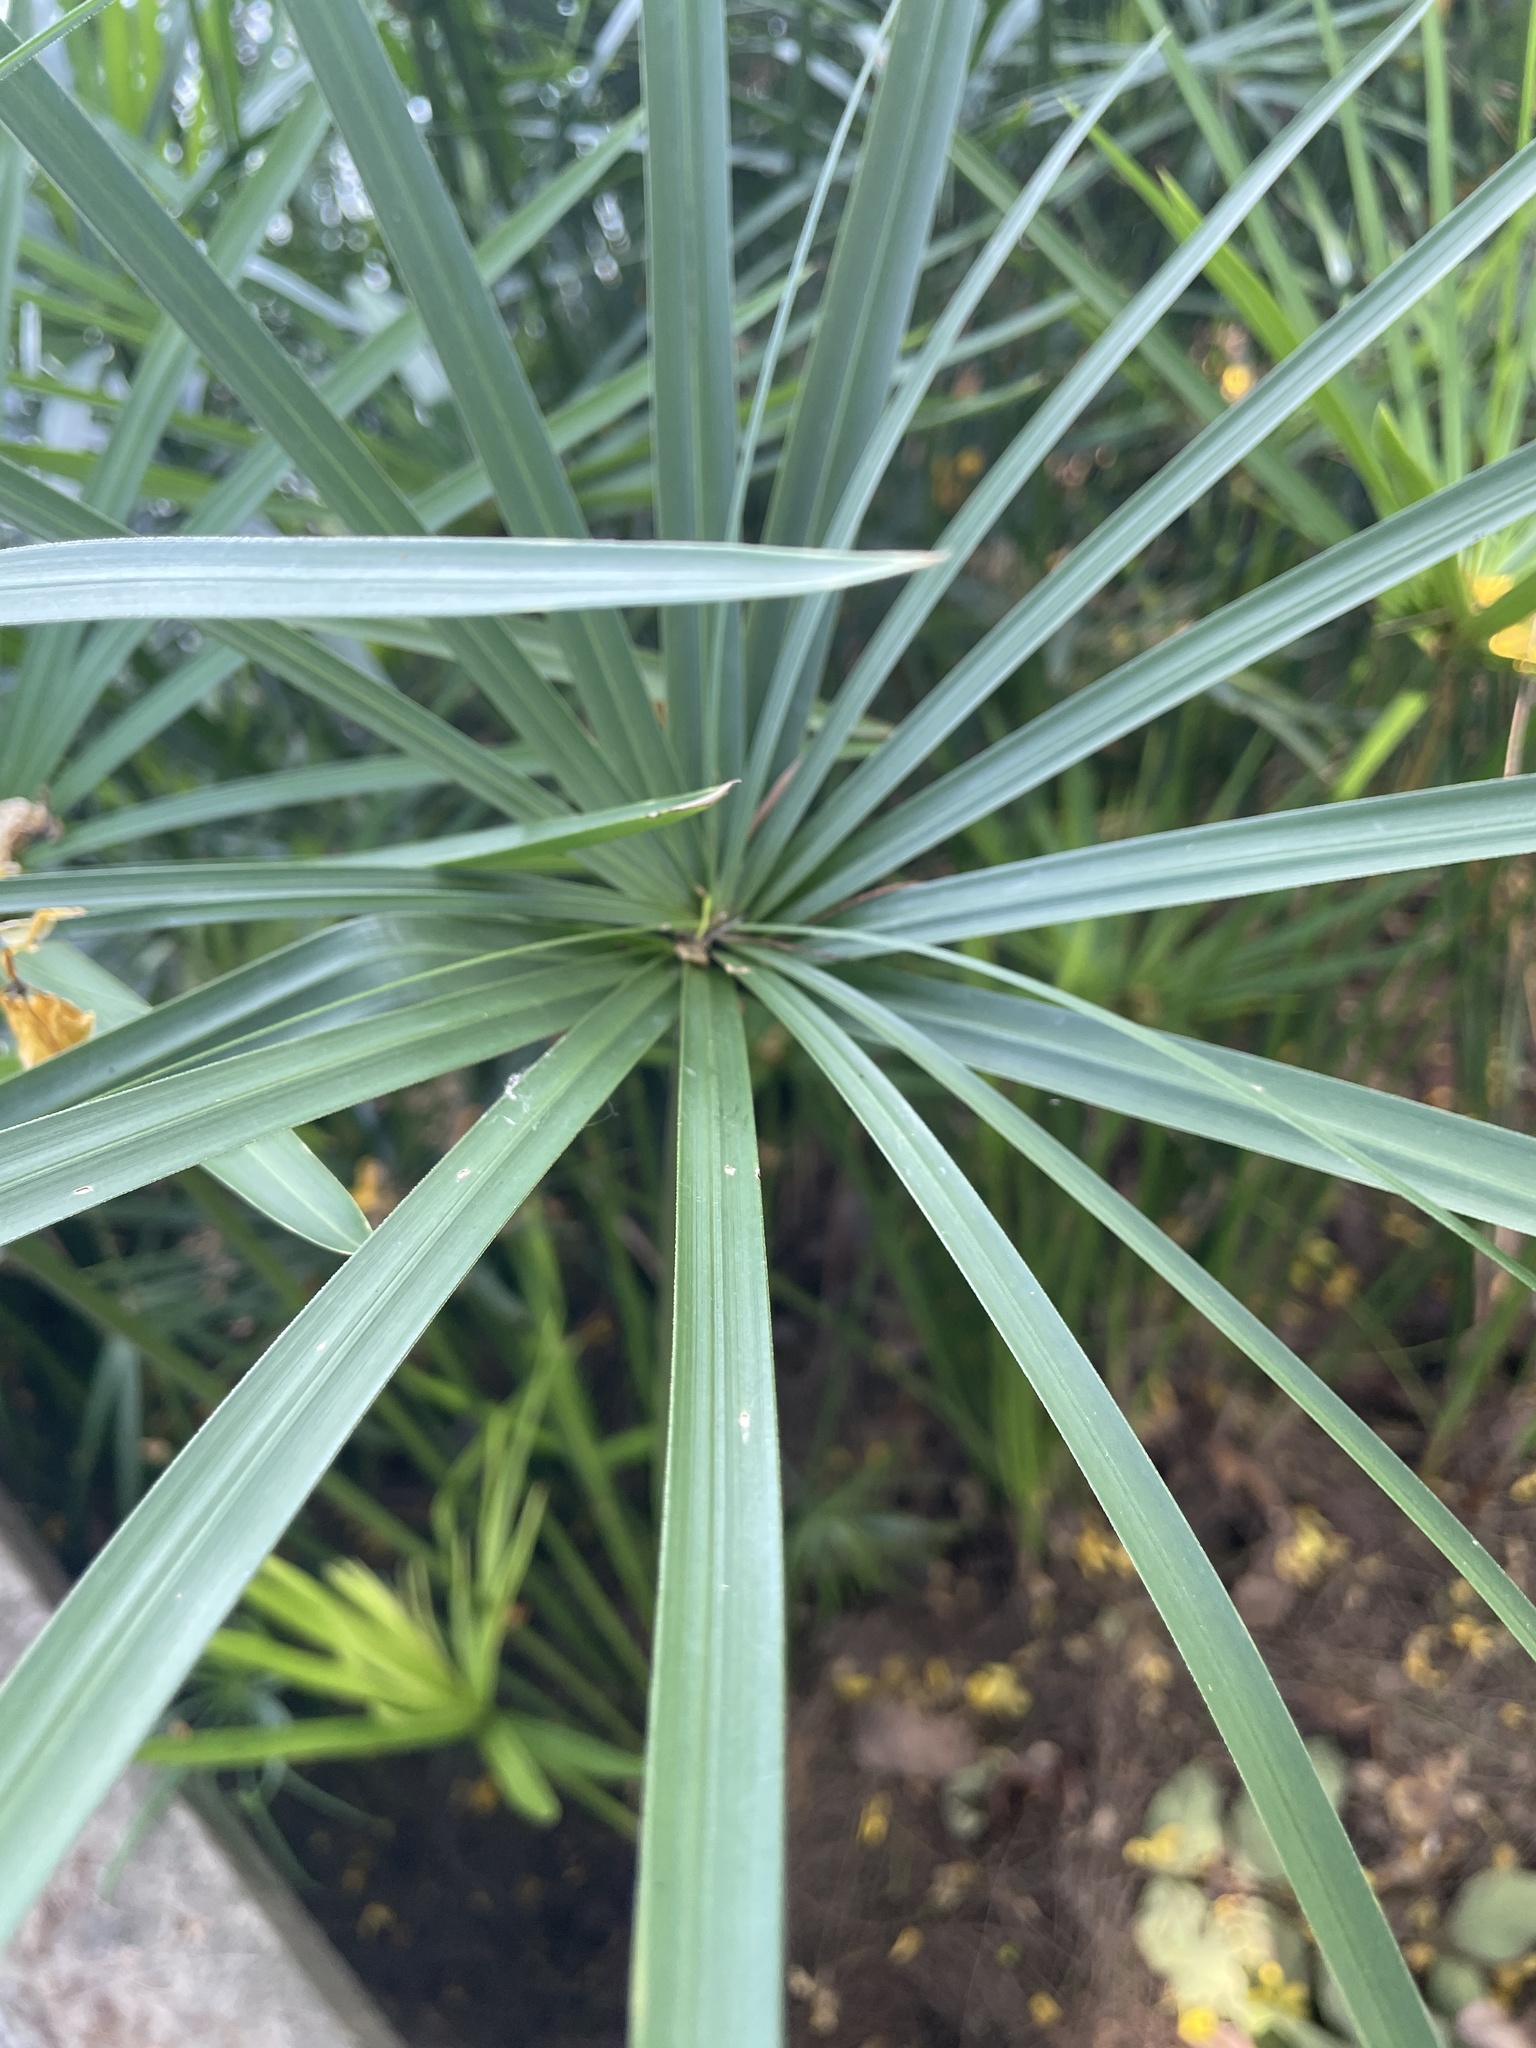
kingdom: Plantae
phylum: Tracheophyta
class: Liliopsida
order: Poales
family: Cyperaceae
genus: Cyperus
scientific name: Cyperus alternifolius
